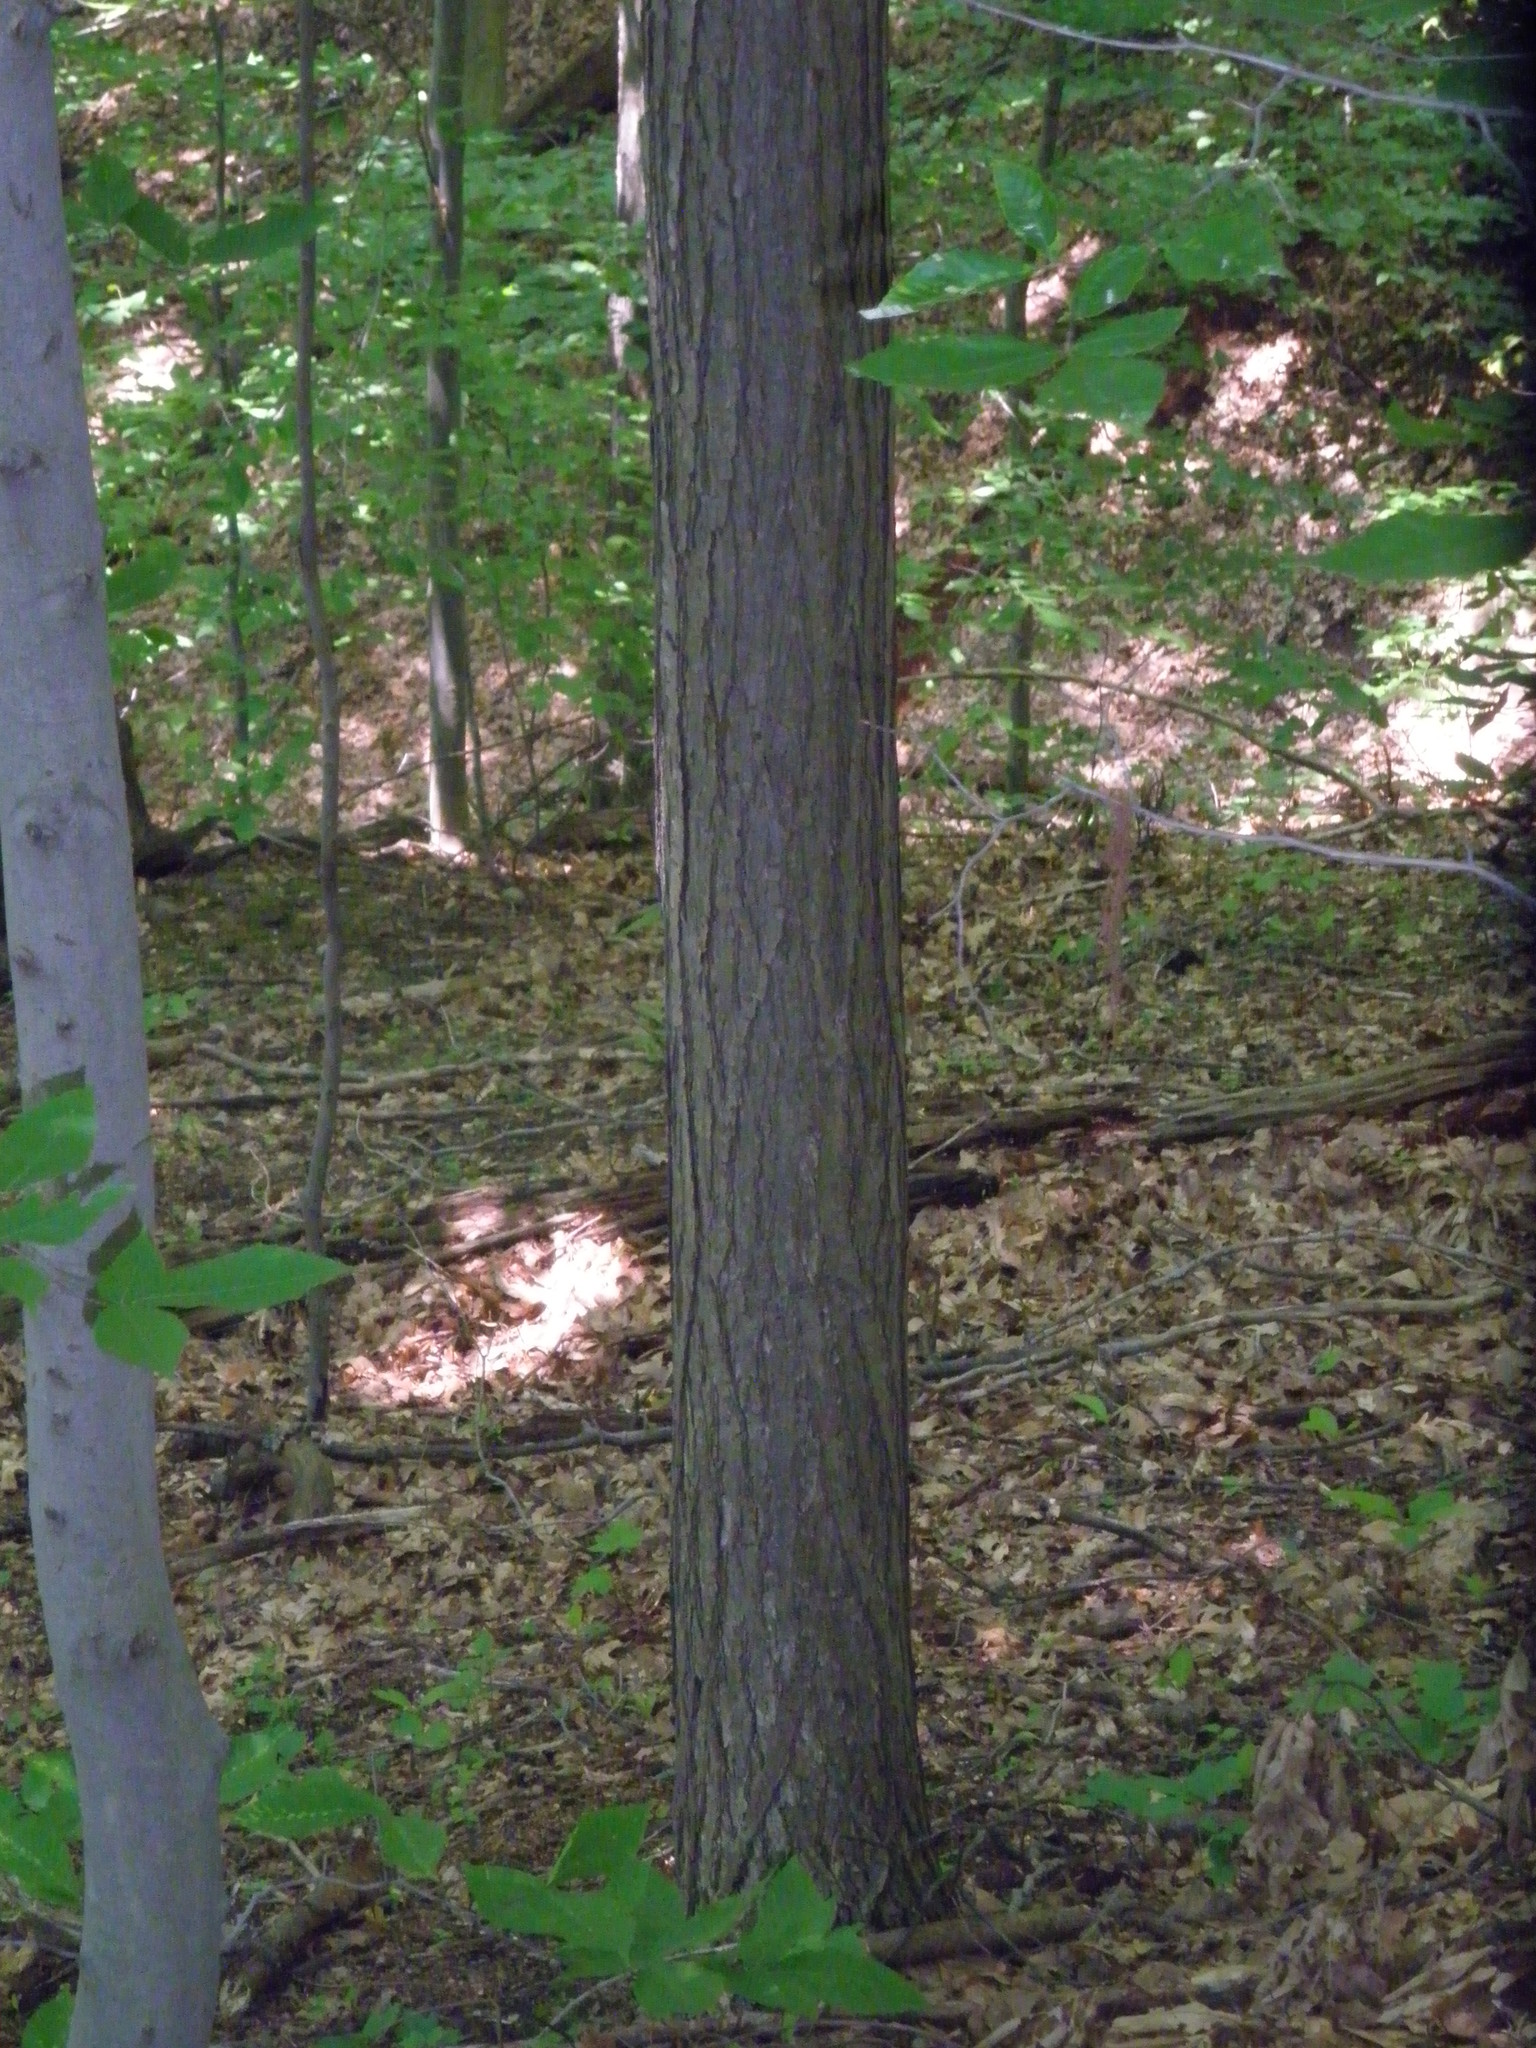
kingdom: Plantae
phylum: Tracheophyta
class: Magnoliopsida
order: Fagales
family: Fagaceae
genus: Castanea
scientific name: Castanea dentata
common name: American chestnut
